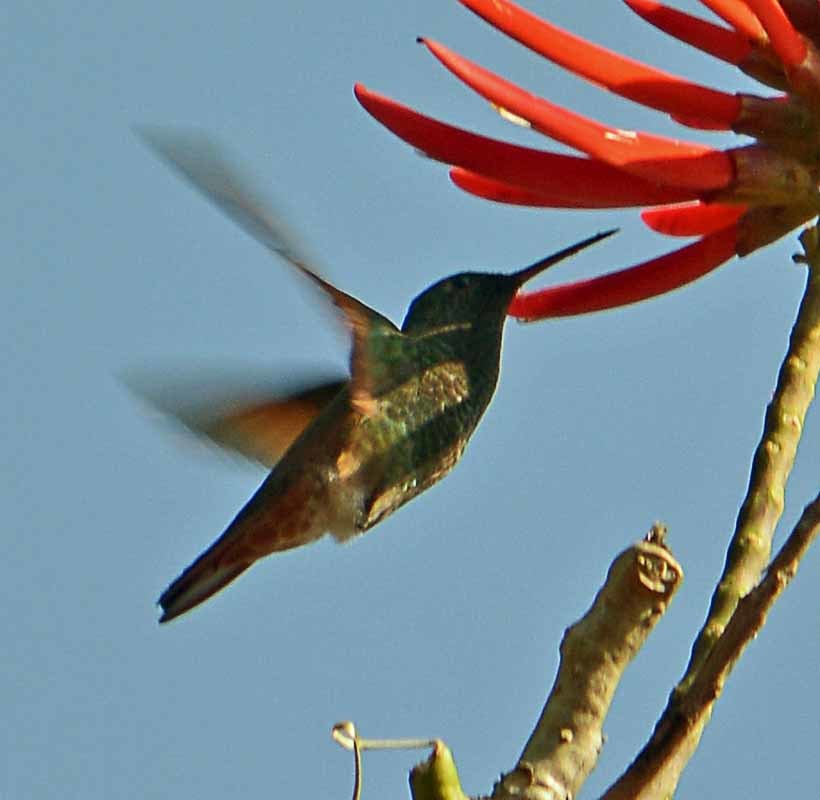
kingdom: Animalia
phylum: Chordata
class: Aves
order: Apodiformes
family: Trochilidae
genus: Saucerottia
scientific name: Saucerottia beryllina
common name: Berylline hummingbird
